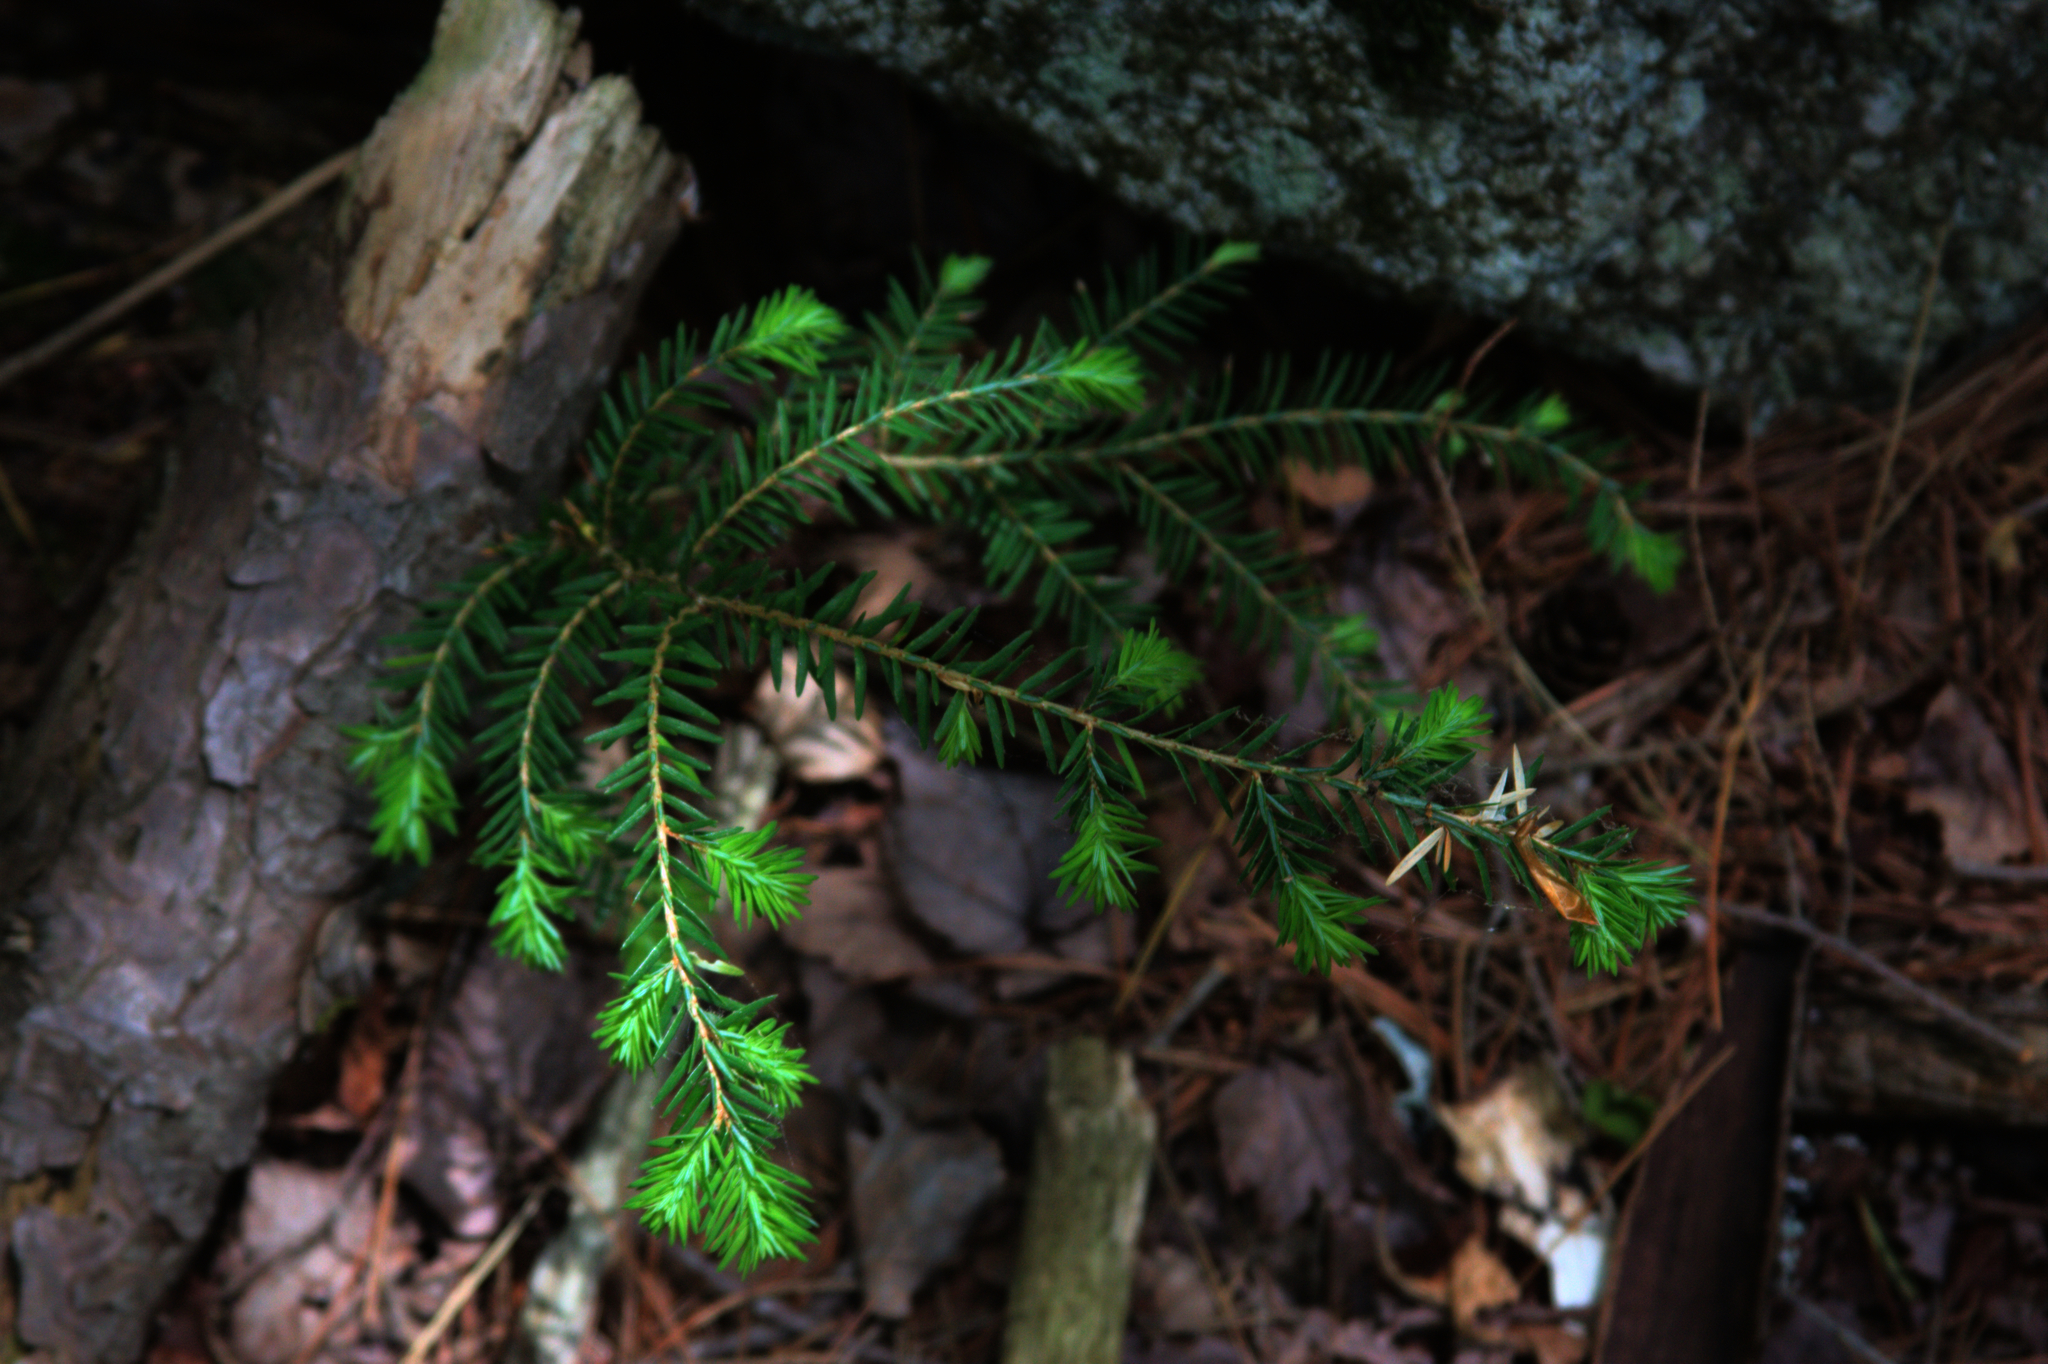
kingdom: Plantae
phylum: Tracheophyta
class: Pinopsida
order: Pinales
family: Pinaceae
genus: Tsuga
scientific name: Tsuga canadensis
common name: Eastern hemlock
